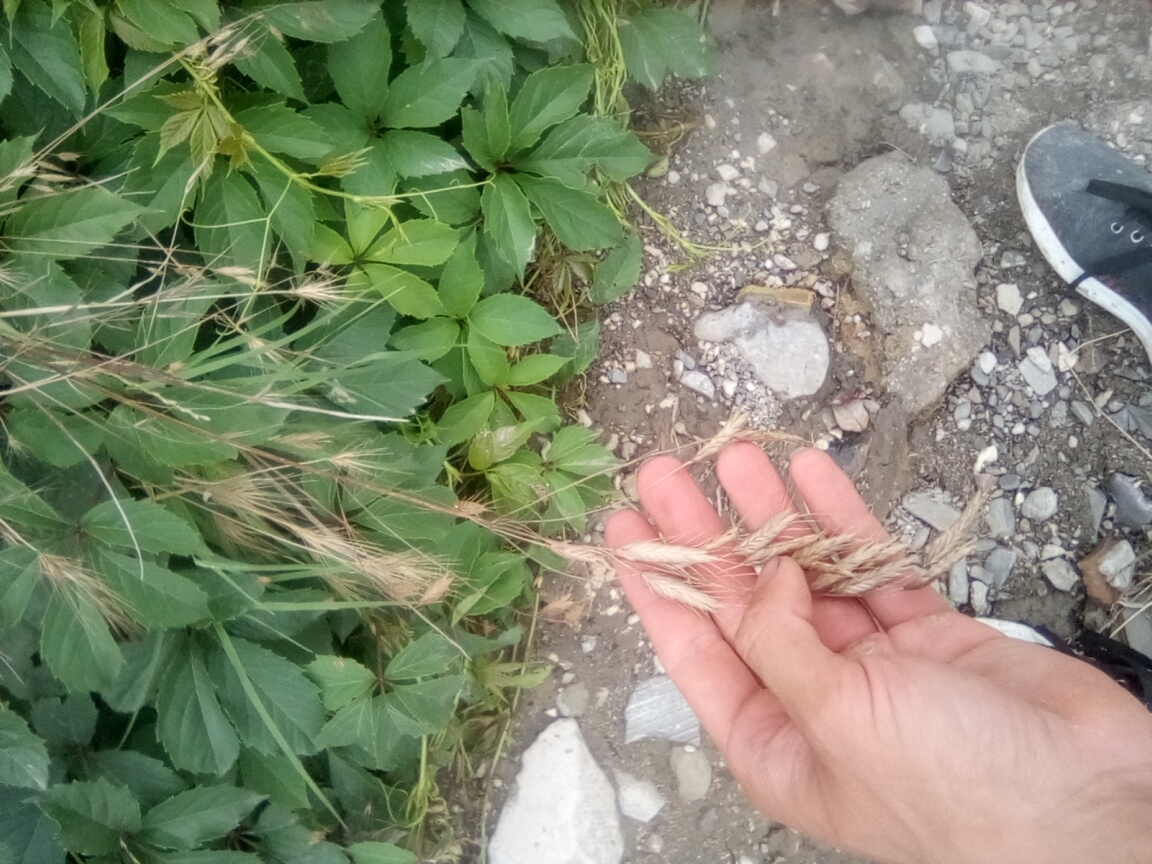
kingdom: Plantae
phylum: Tracheophyta
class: Liliopsida
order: Poales
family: Poaceae
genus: Bromus
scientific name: Bromus squarrosus
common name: Corn brome
